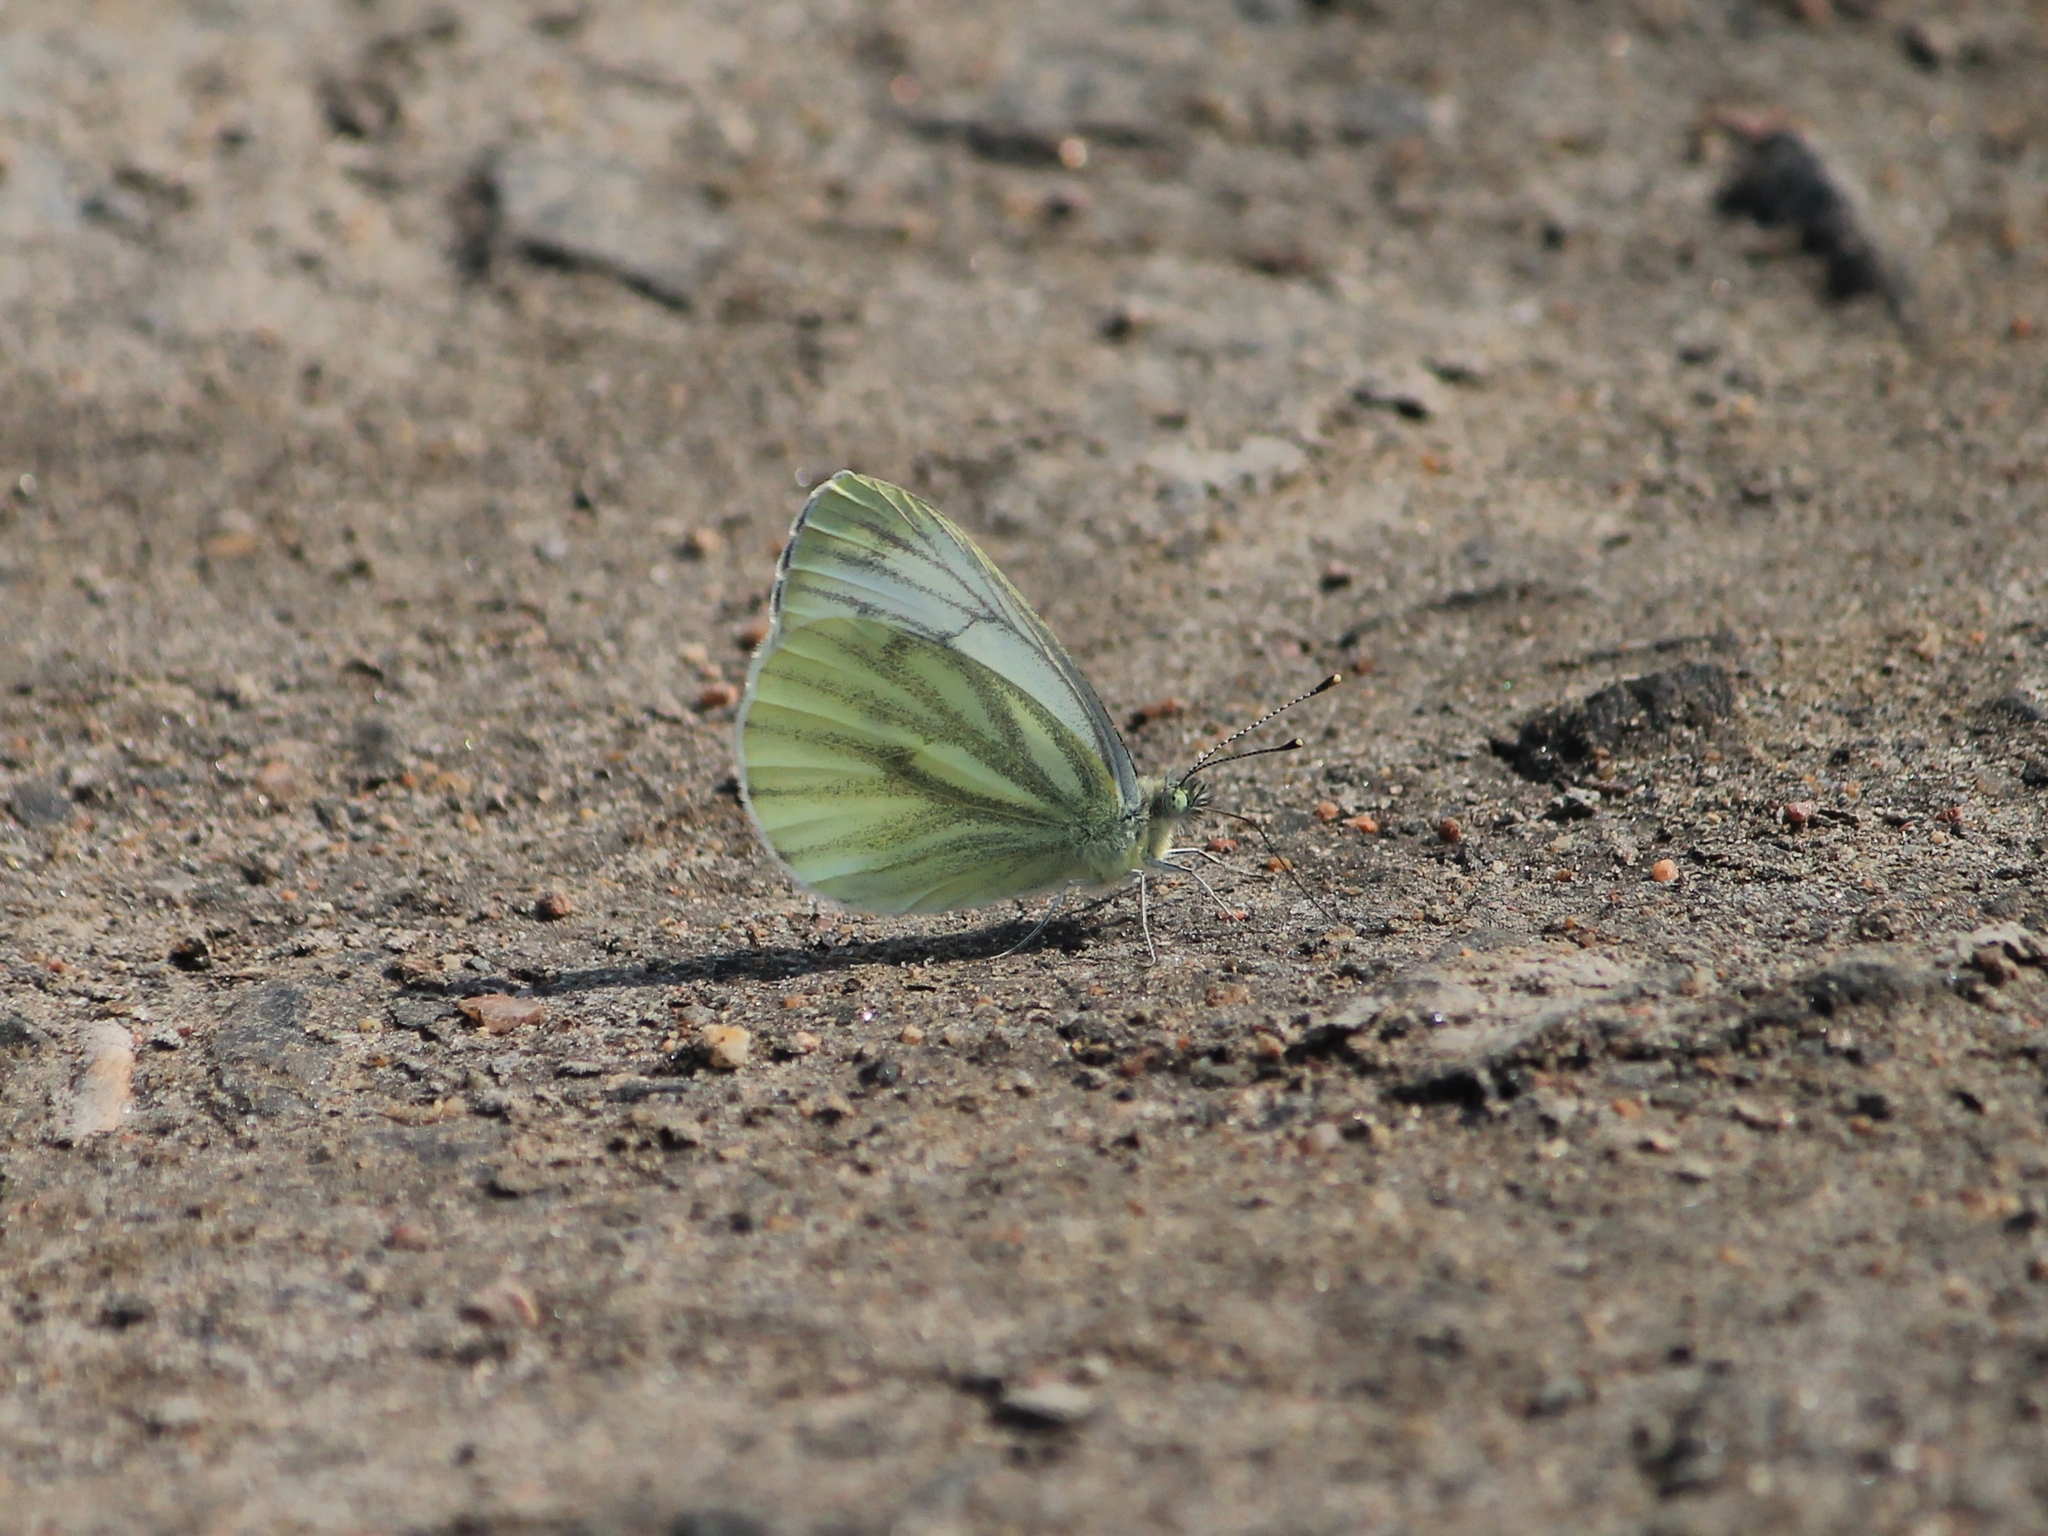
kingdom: Animalia
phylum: Arthropoda
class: Insecta
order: Lepidoptera
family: Pieridae
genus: Pieris
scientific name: Pieris napi
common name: Green-veined white
